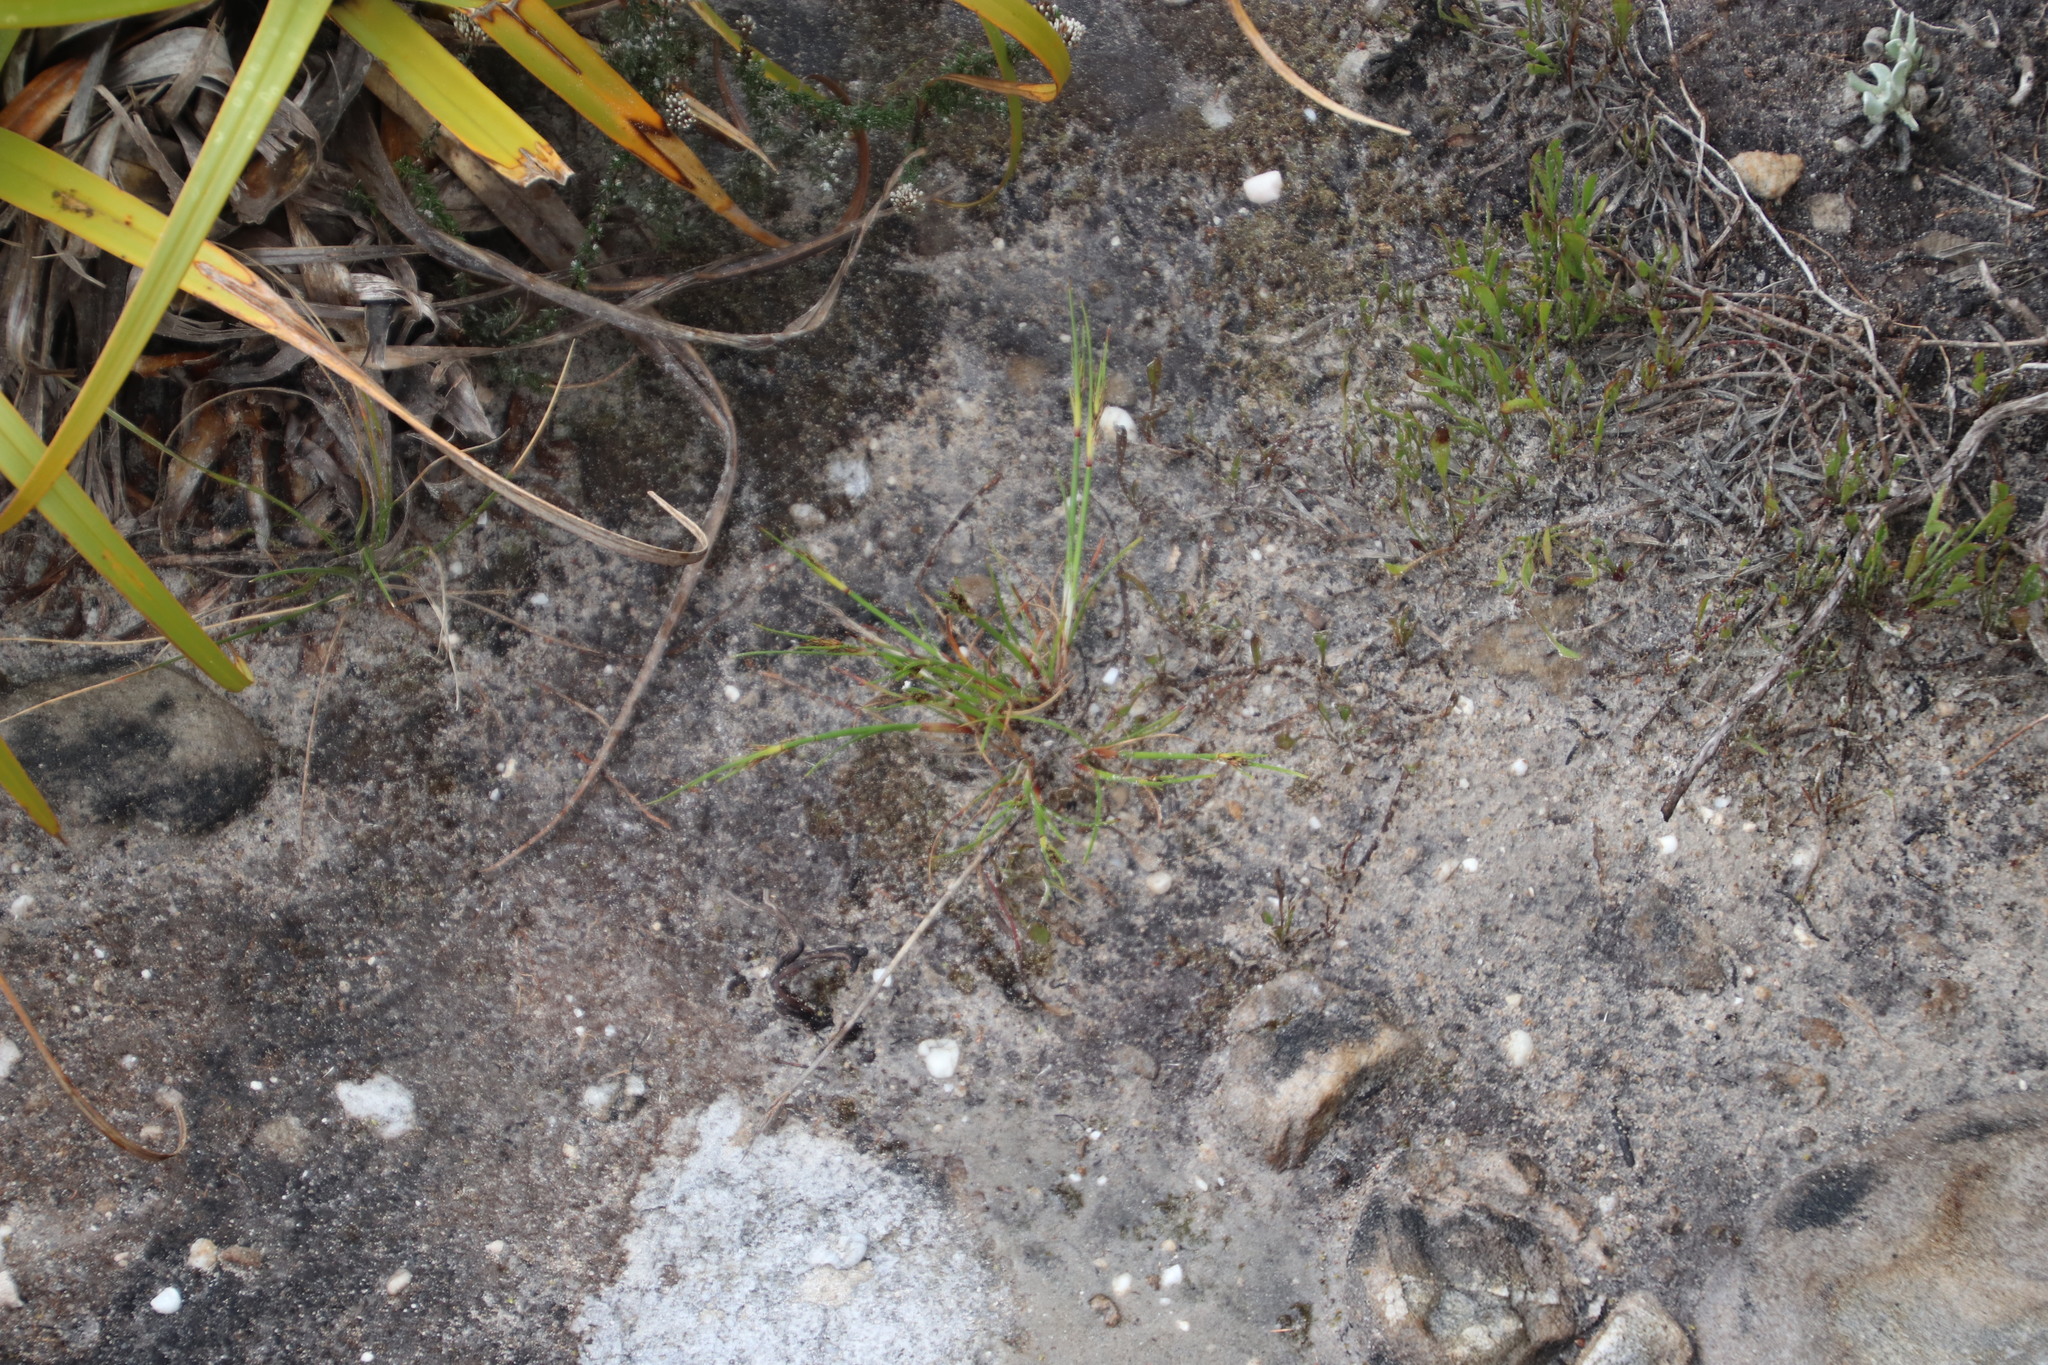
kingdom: Plantae
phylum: Tracheophyta
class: Liliopsida
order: Poales
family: Cyperaceae
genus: Cyathocoma
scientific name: Cyathocoma hexandra
